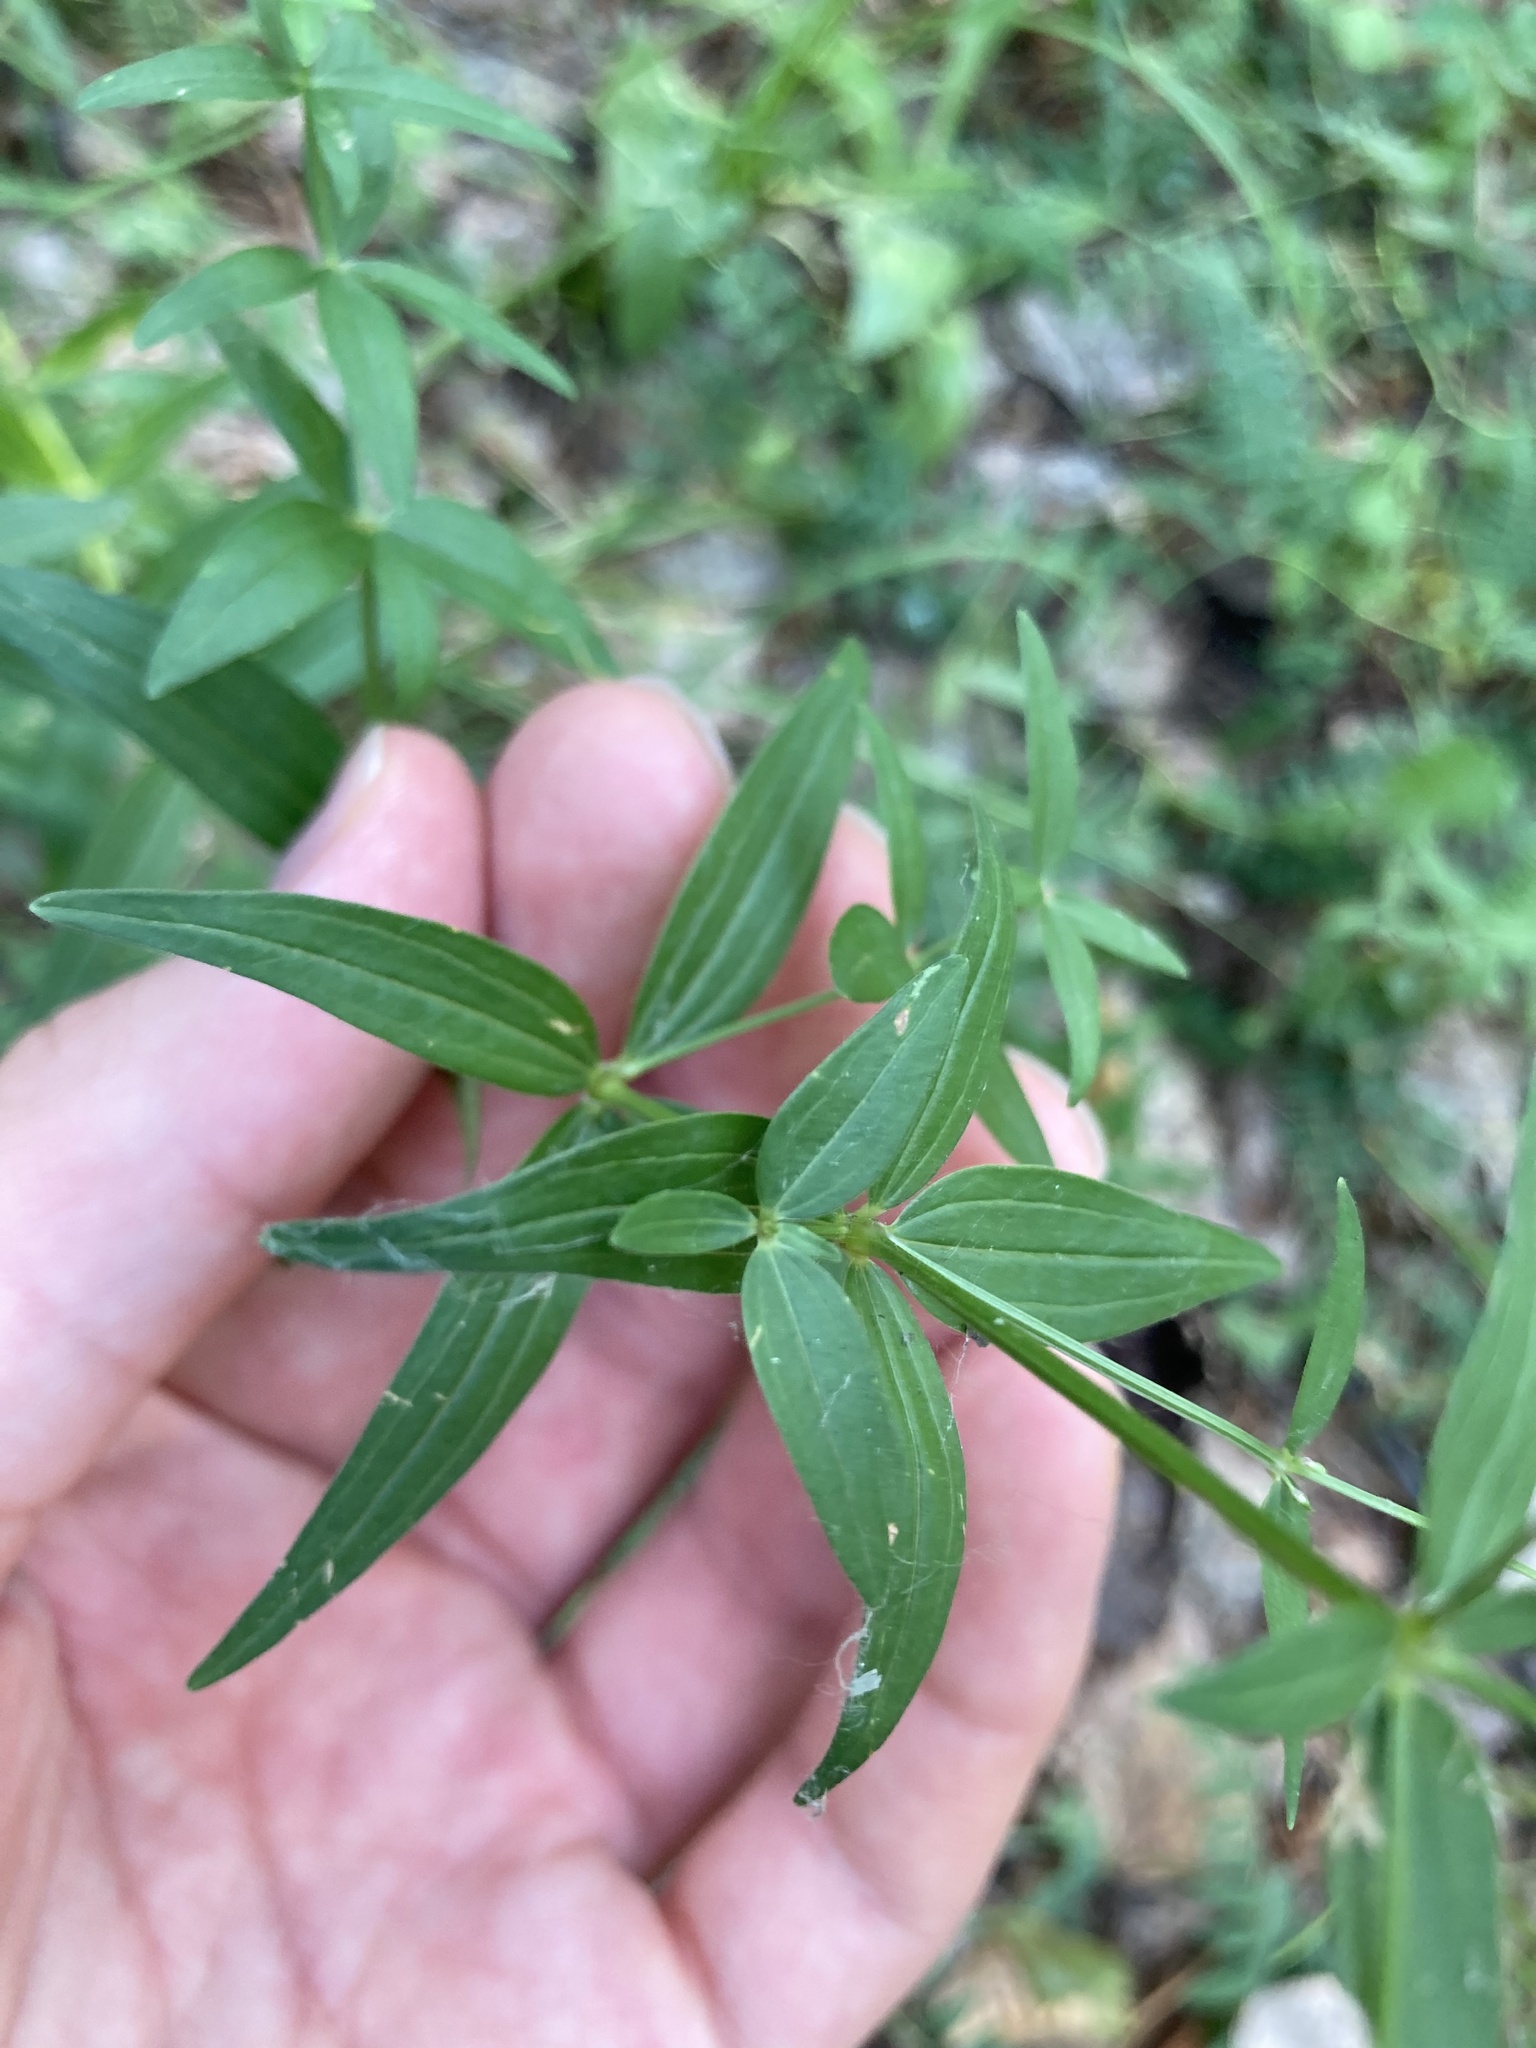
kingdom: Plantae
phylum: Tracheophyta
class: Magnoliopsida
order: Gentianales
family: Rubiaceae
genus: Galium
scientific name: Galium boreale
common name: Northern bedstraw
